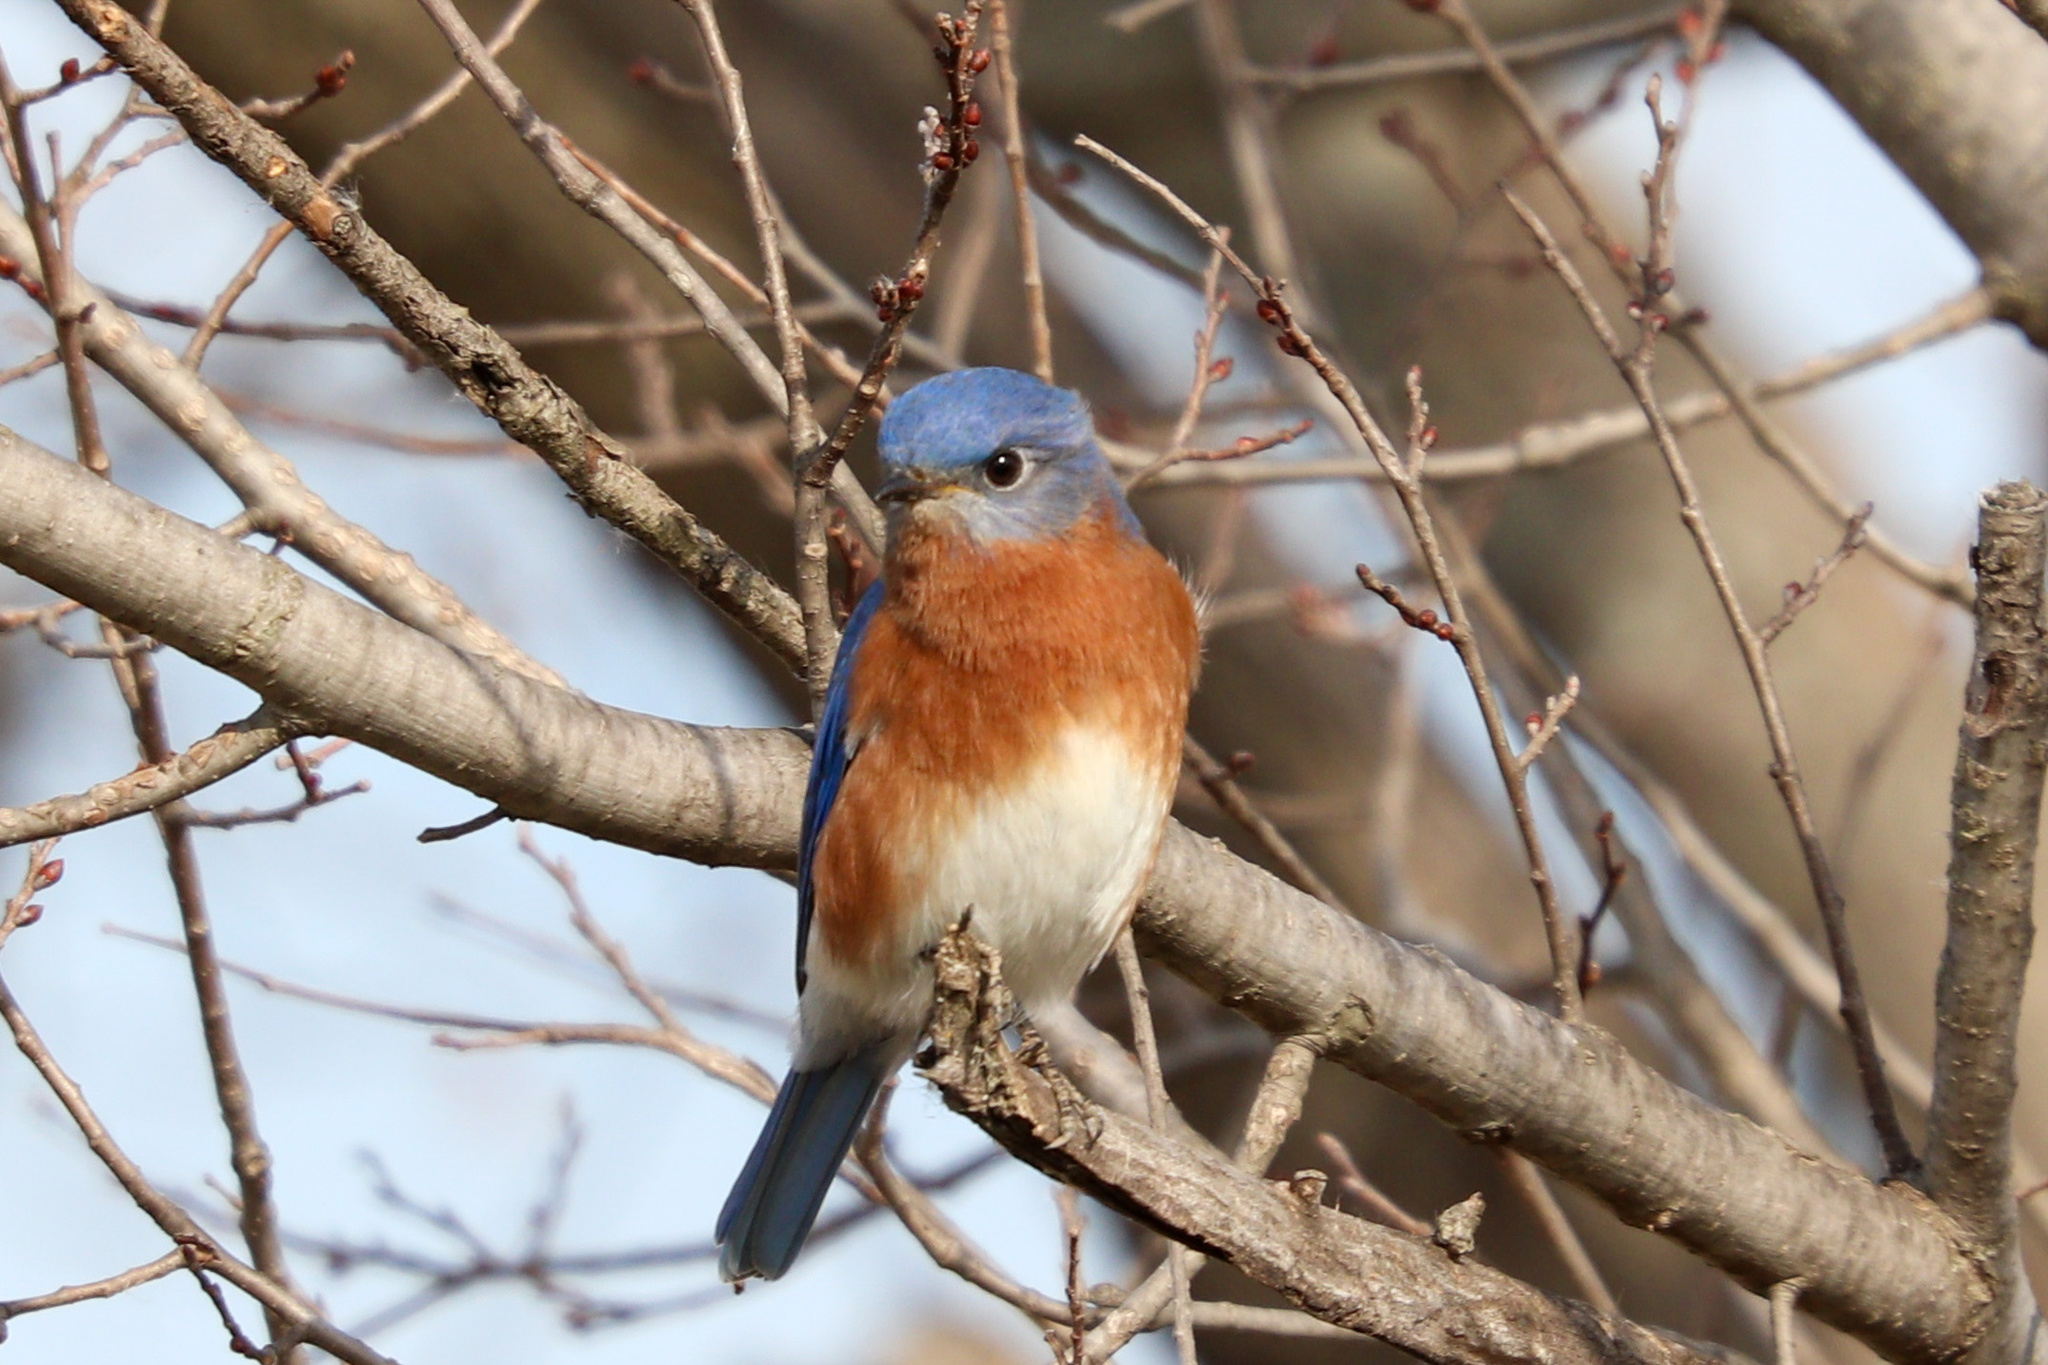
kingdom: Animalia
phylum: Chordata
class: Aves
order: Passeriformes
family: Turdidae
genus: Sialia
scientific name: Sialia sialis
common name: Eastern bluebird
